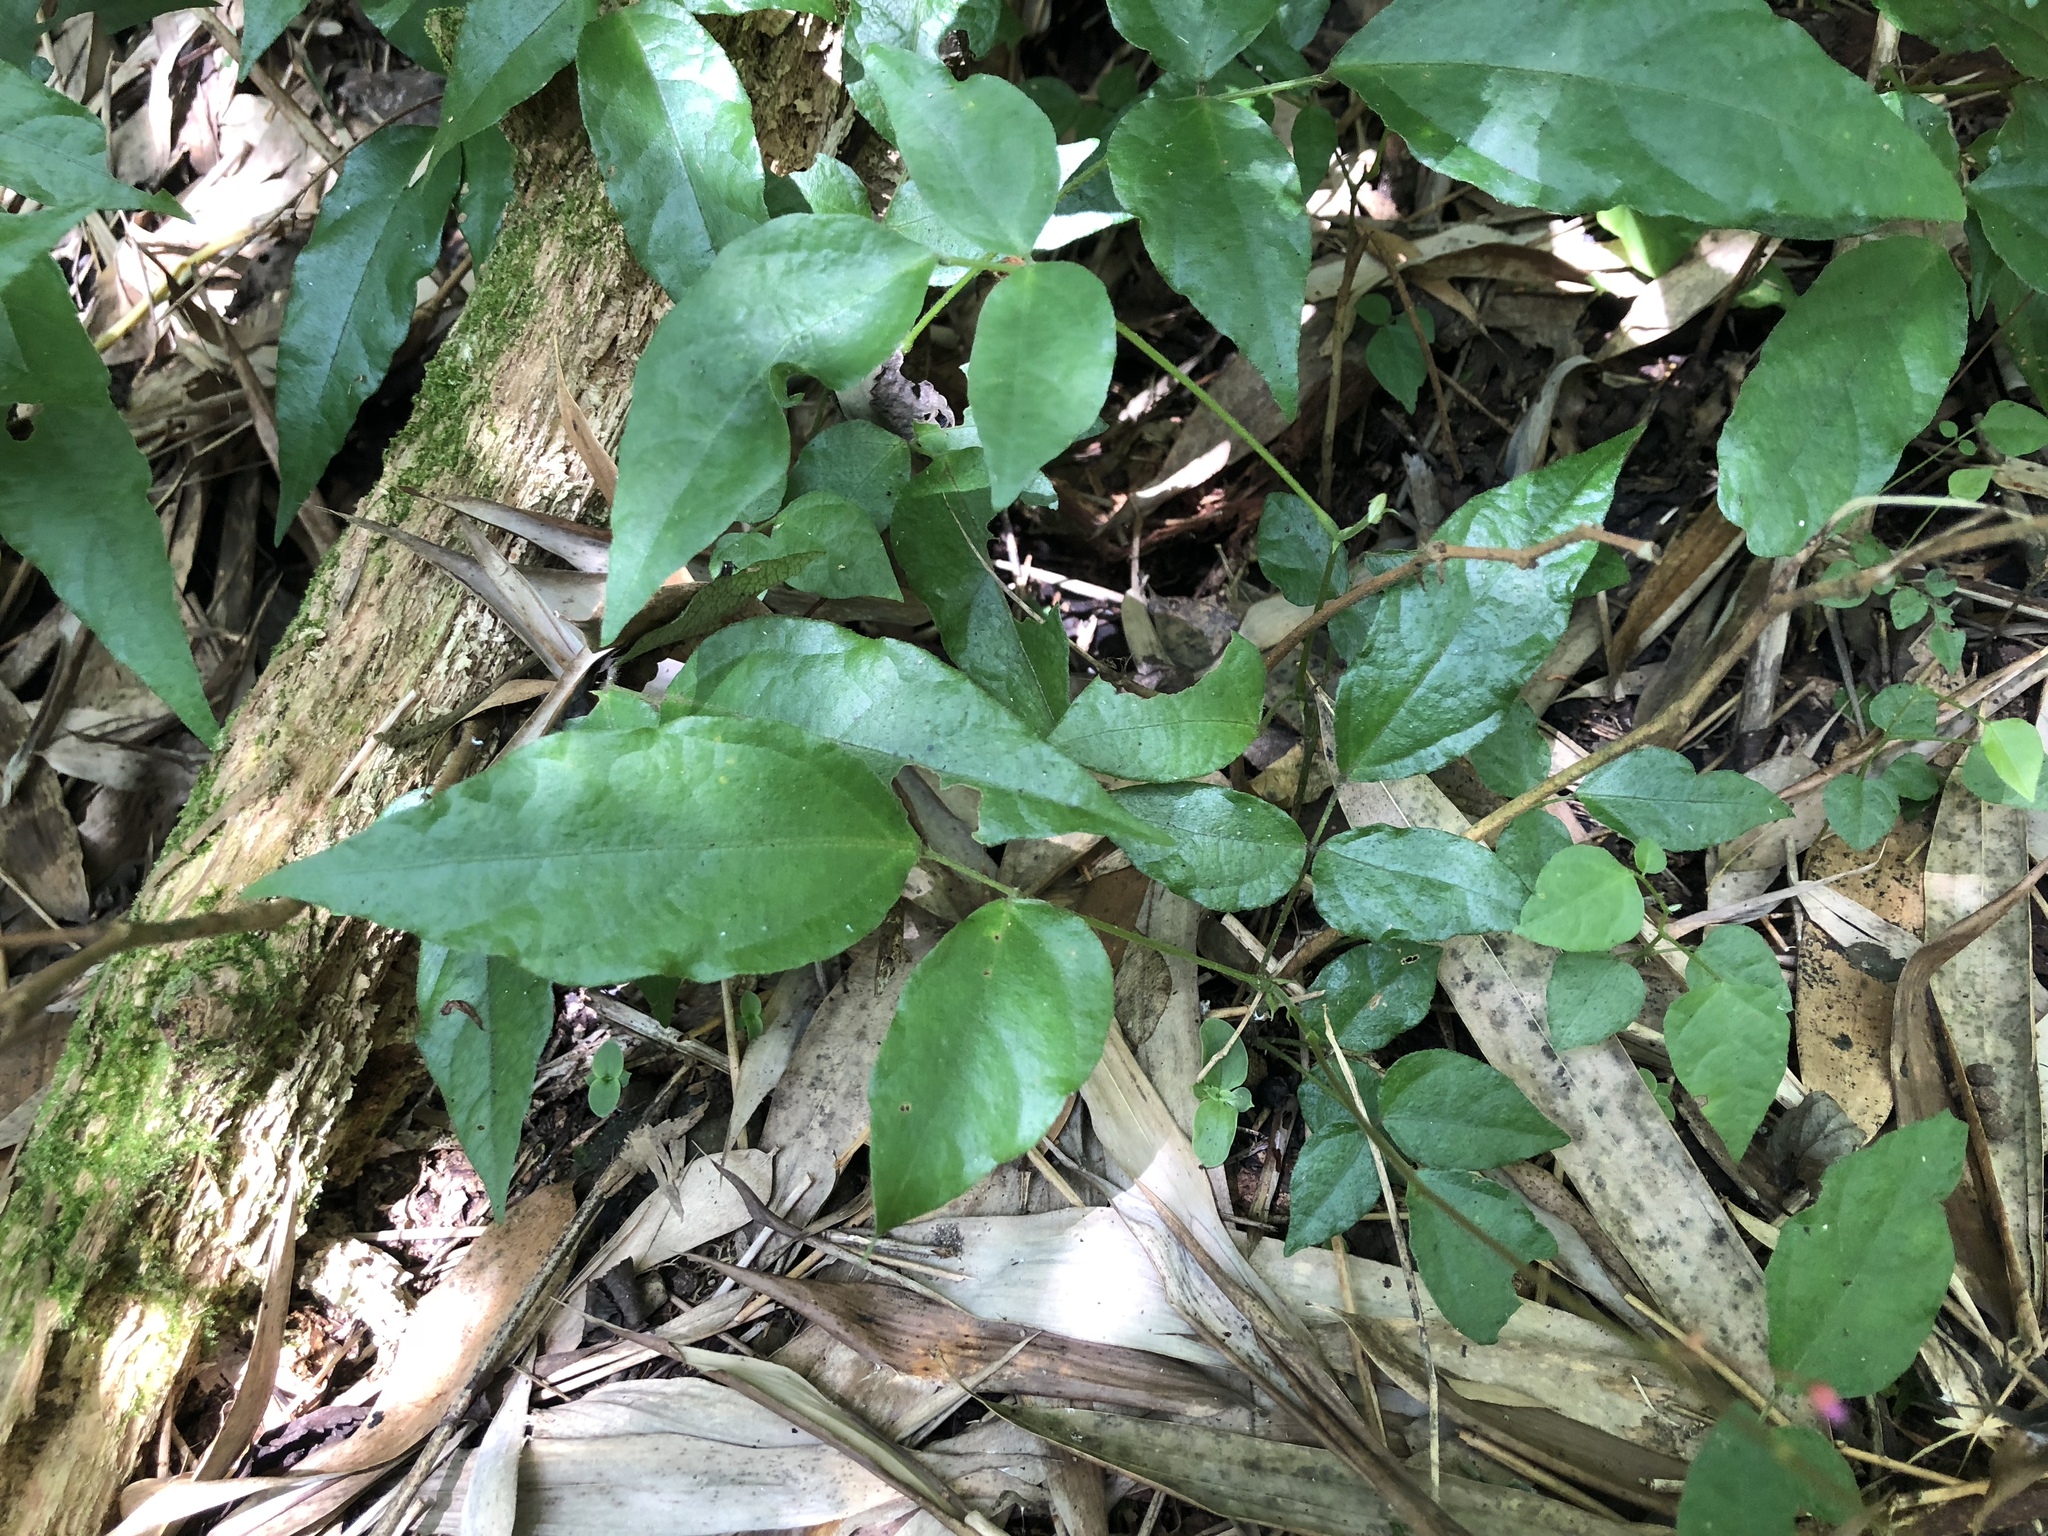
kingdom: Plantae
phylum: Tracheophyta
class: Magnoliopsida
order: Fabales
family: Fabaceae
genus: Hylodesmum
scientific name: Hylodesmum laterale
